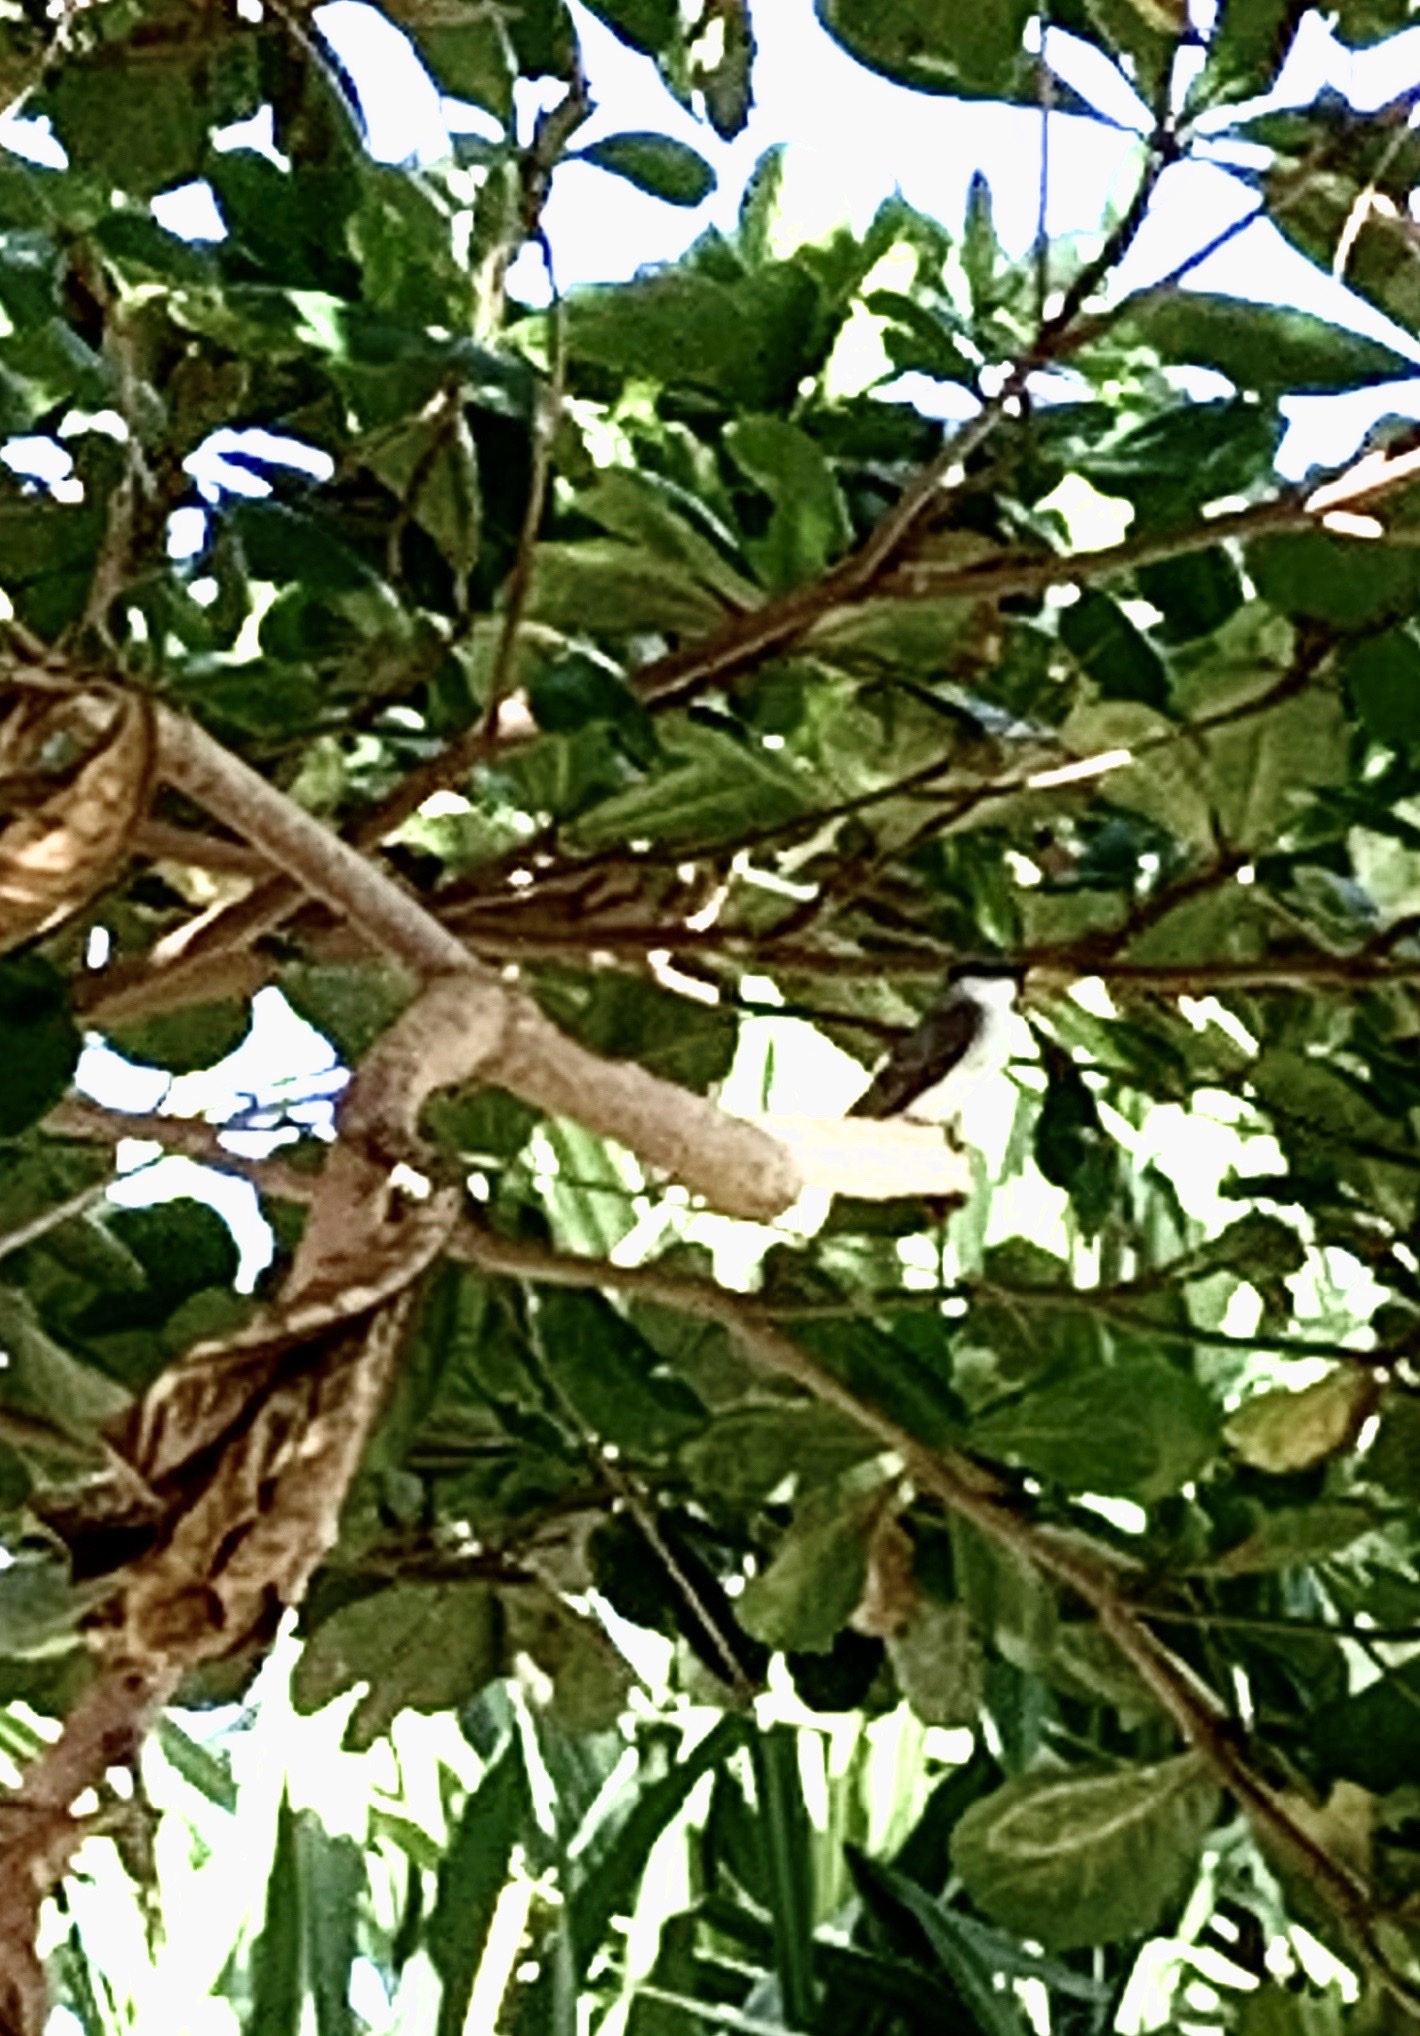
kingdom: Animalia
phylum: Chordata
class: Aves
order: Passeriformes
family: Tyrannidae
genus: Tyrannus
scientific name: Tyrannus dominicensis
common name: Gray kingbird
